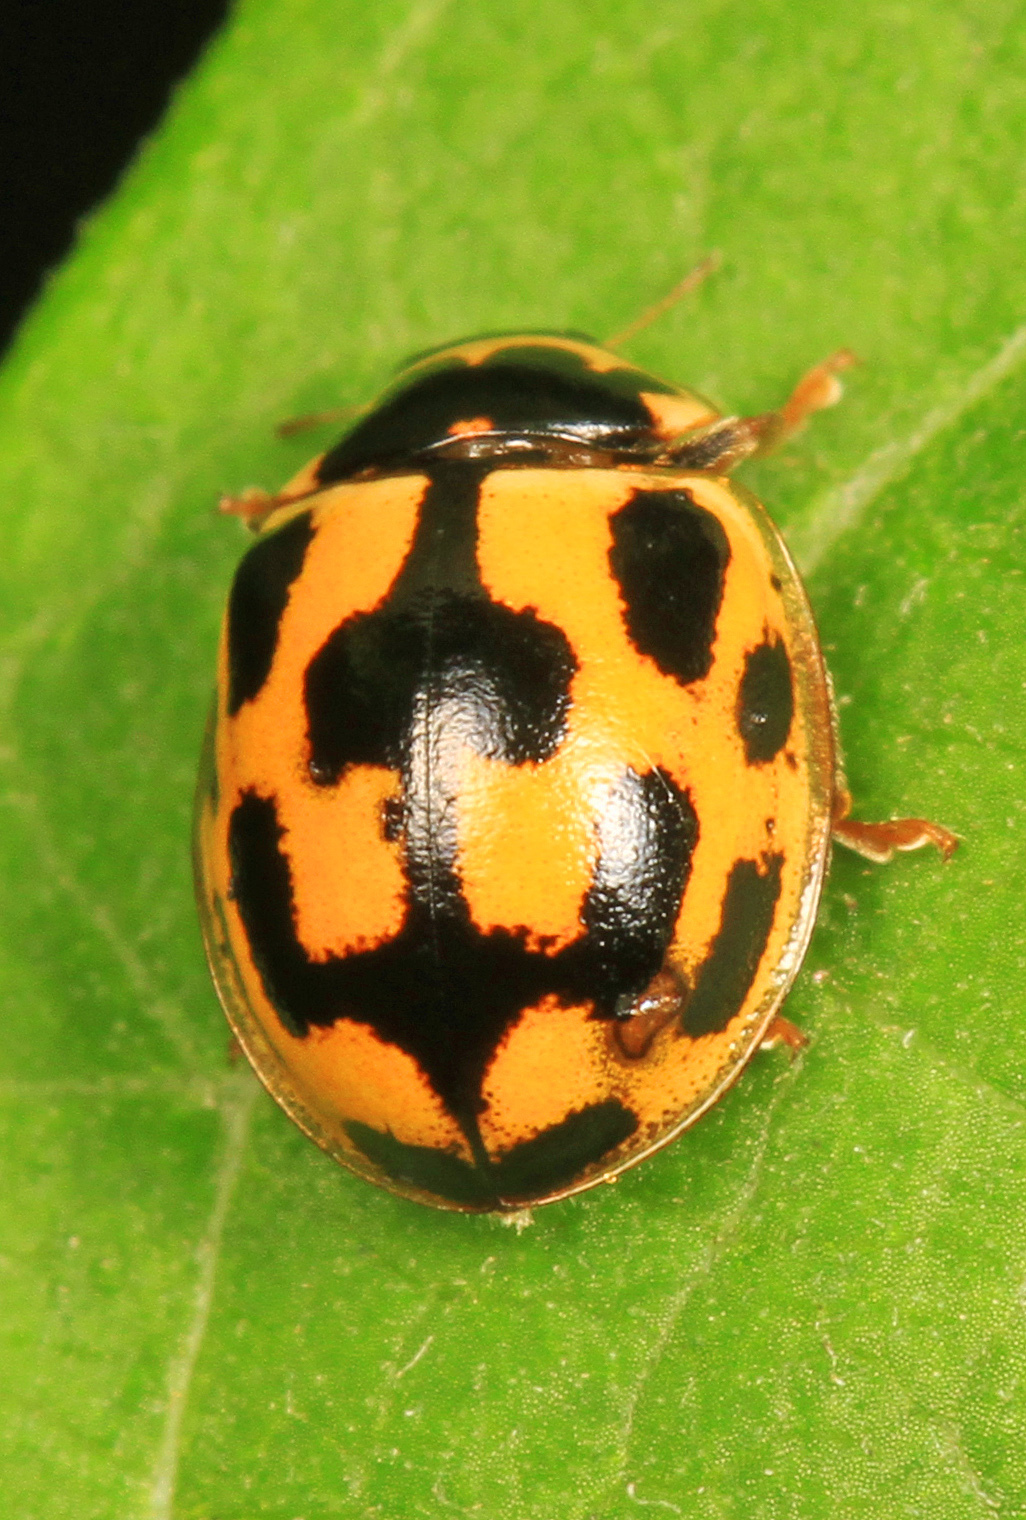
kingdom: Animalia
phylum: Arthropoda
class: Insecta
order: Coleoptera
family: Coccinellidae
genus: Propylaea
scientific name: Propylaea quatuordecimpunctata
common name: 14-spotted ladybird beetle
